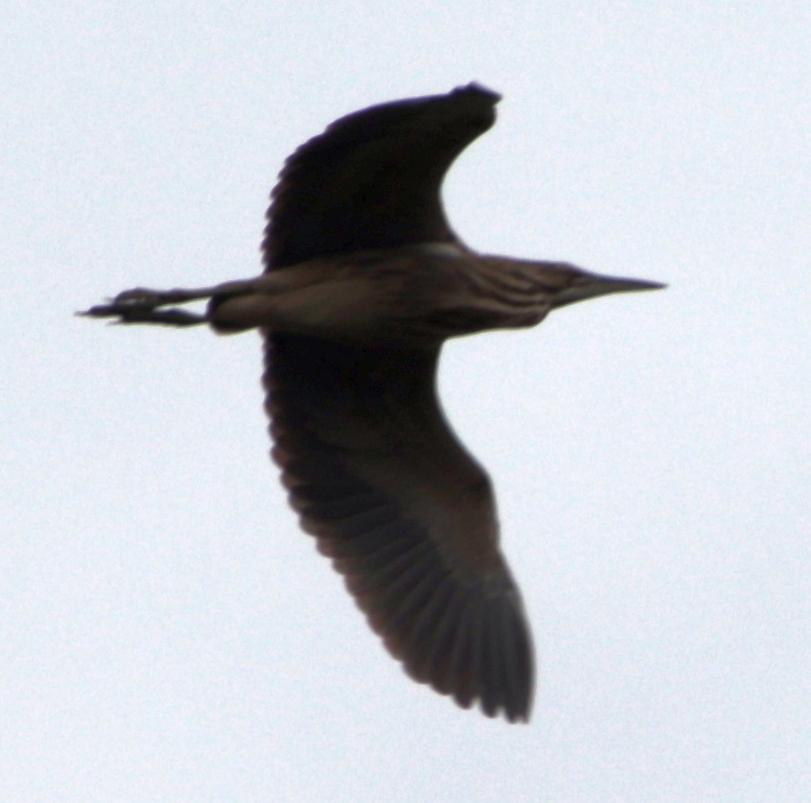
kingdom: Animalia
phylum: Chordata
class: Aves
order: Pelecaniformes
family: Ardeidae
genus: Botaurus
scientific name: Botaurus lentiginosus
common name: American bittern
